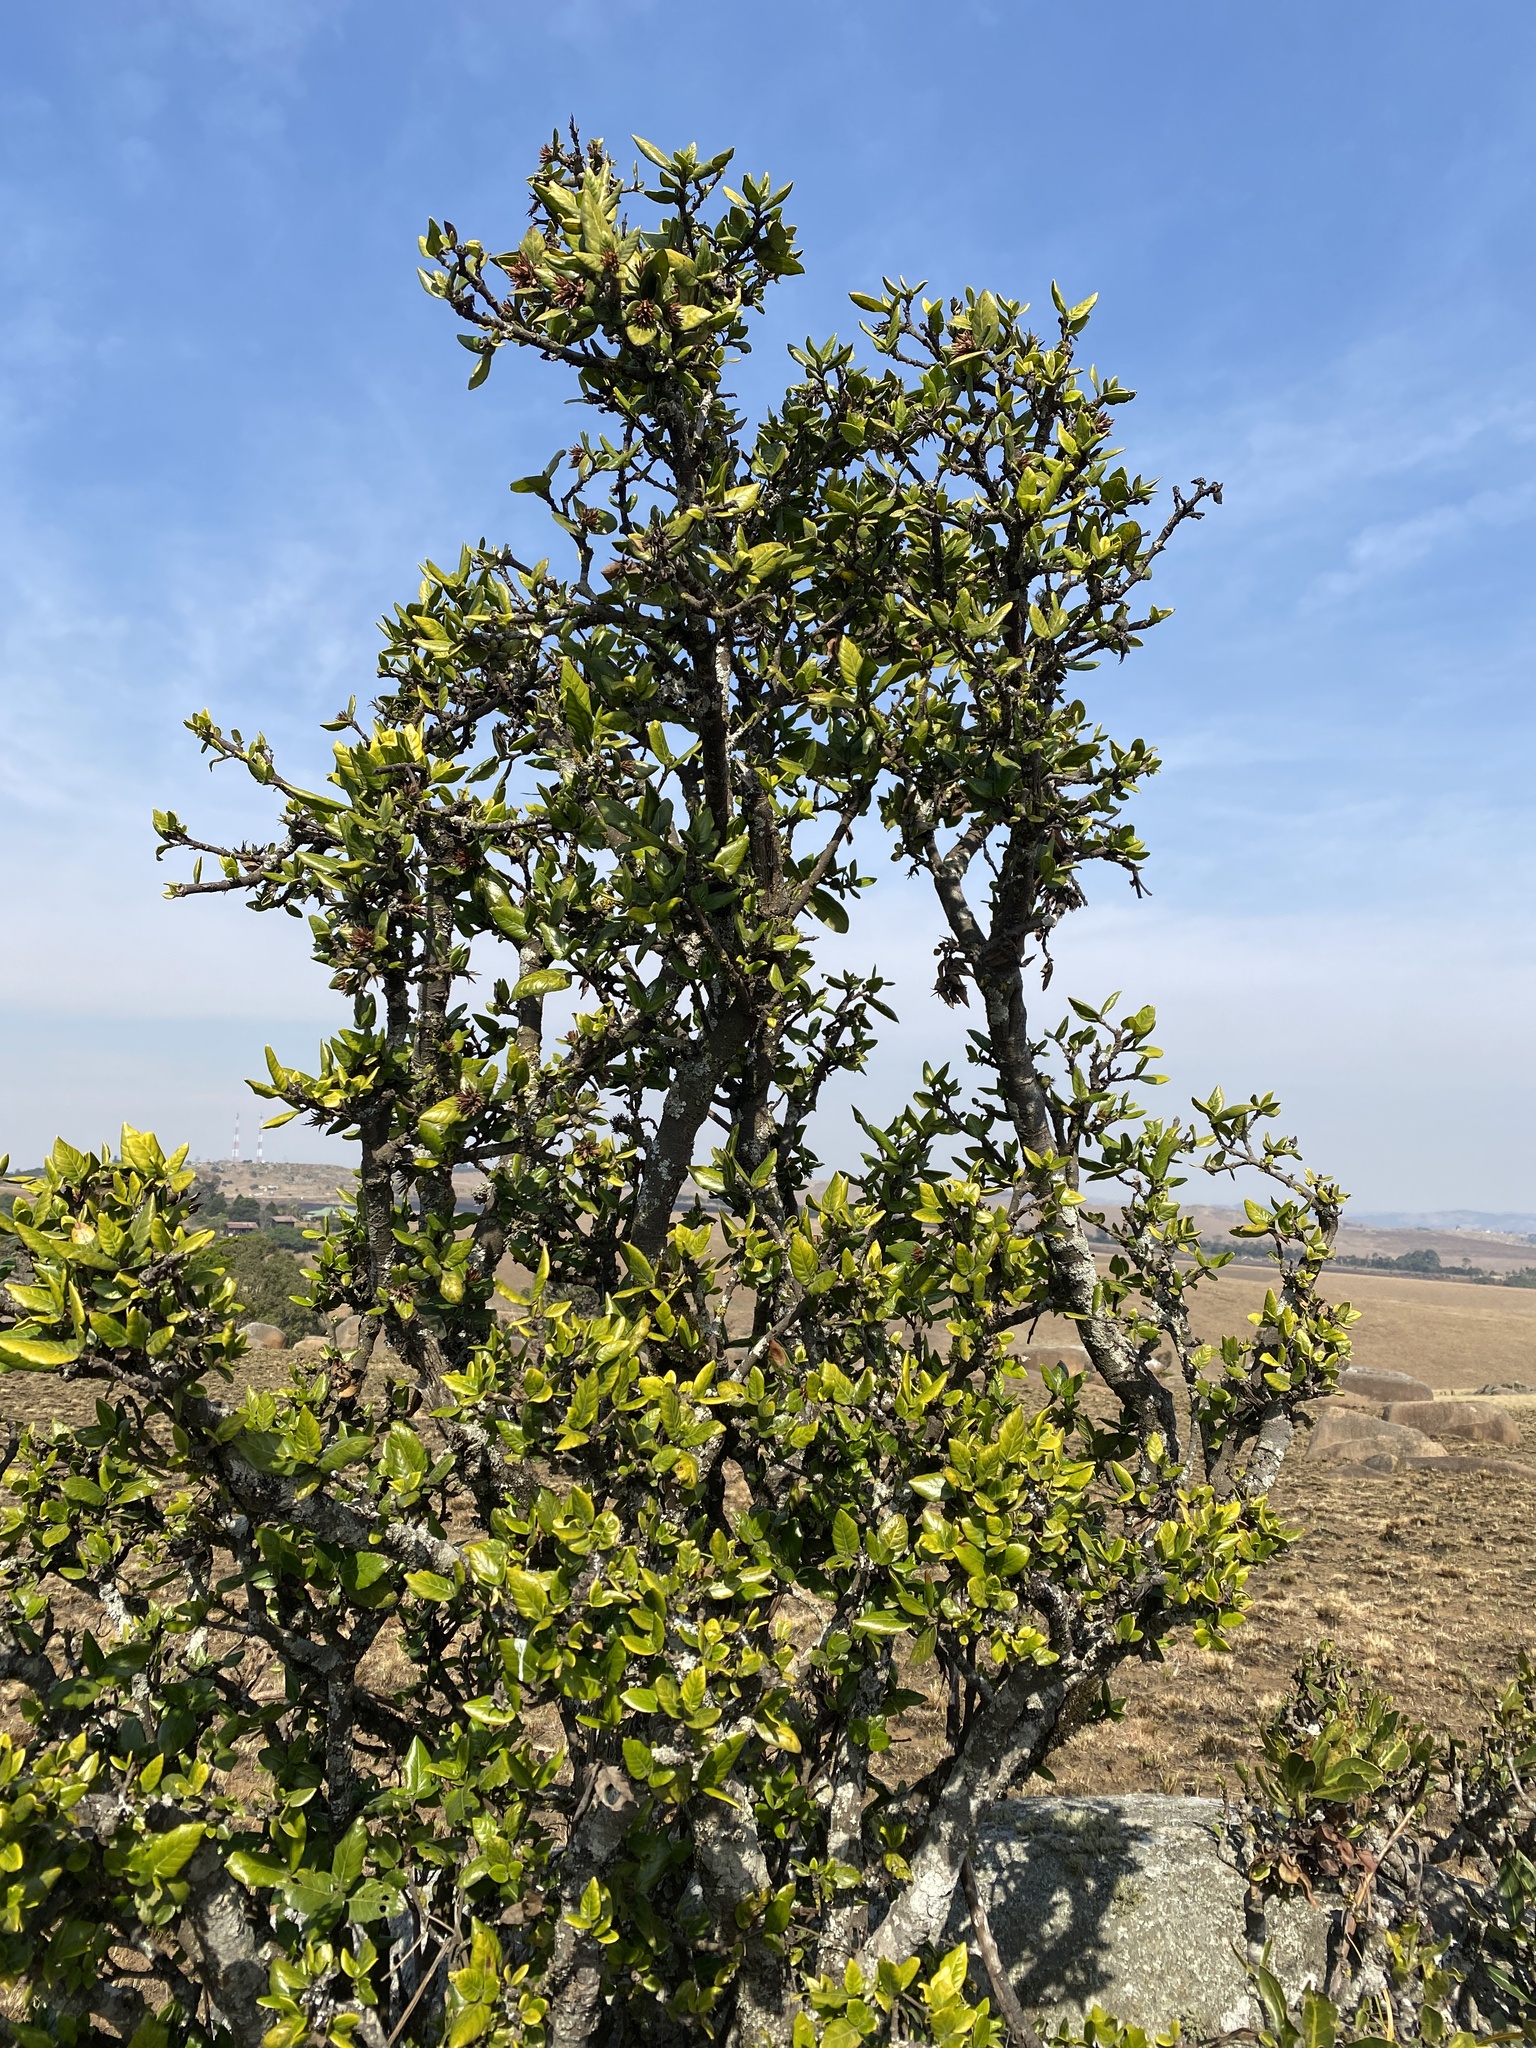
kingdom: Plantae
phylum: Tracheophyta
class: Magnoliopsida
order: Gentianales
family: Rubiaceae
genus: Burchellia
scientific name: Burchellia bubalina
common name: Wild pomegranate
